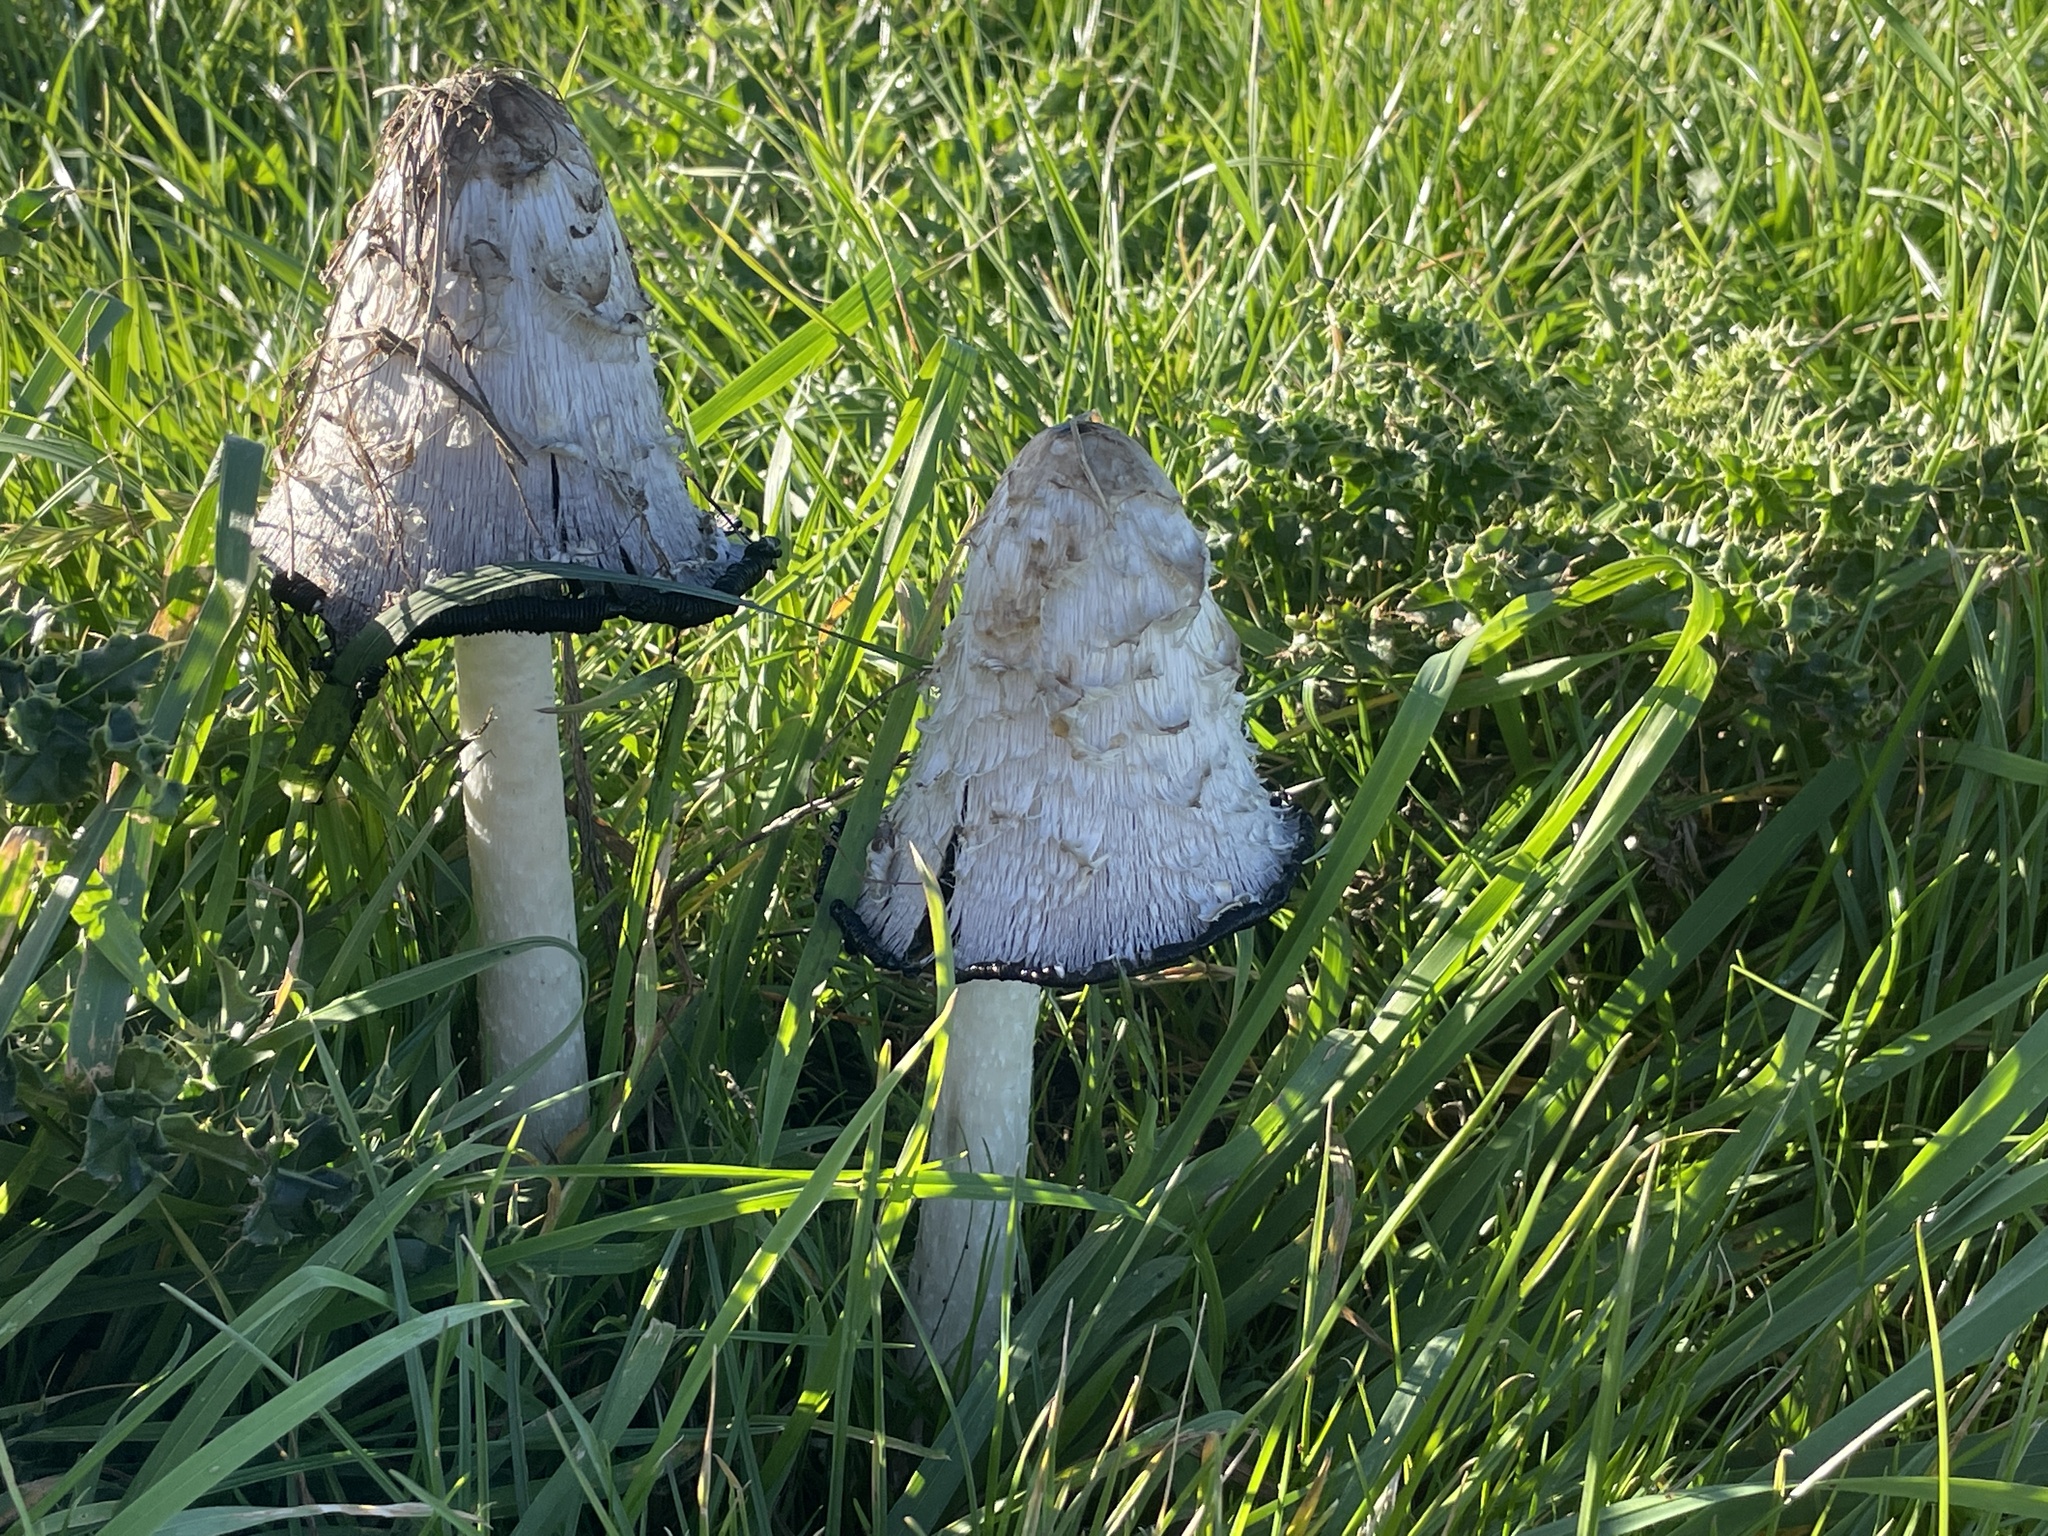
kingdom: Fungi
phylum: Basidiomycota
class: Agaricomycetes
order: Agaricales
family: Agaricaceae
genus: Coprinus
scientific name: Coprinus comatus
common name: Lawyer's wig
